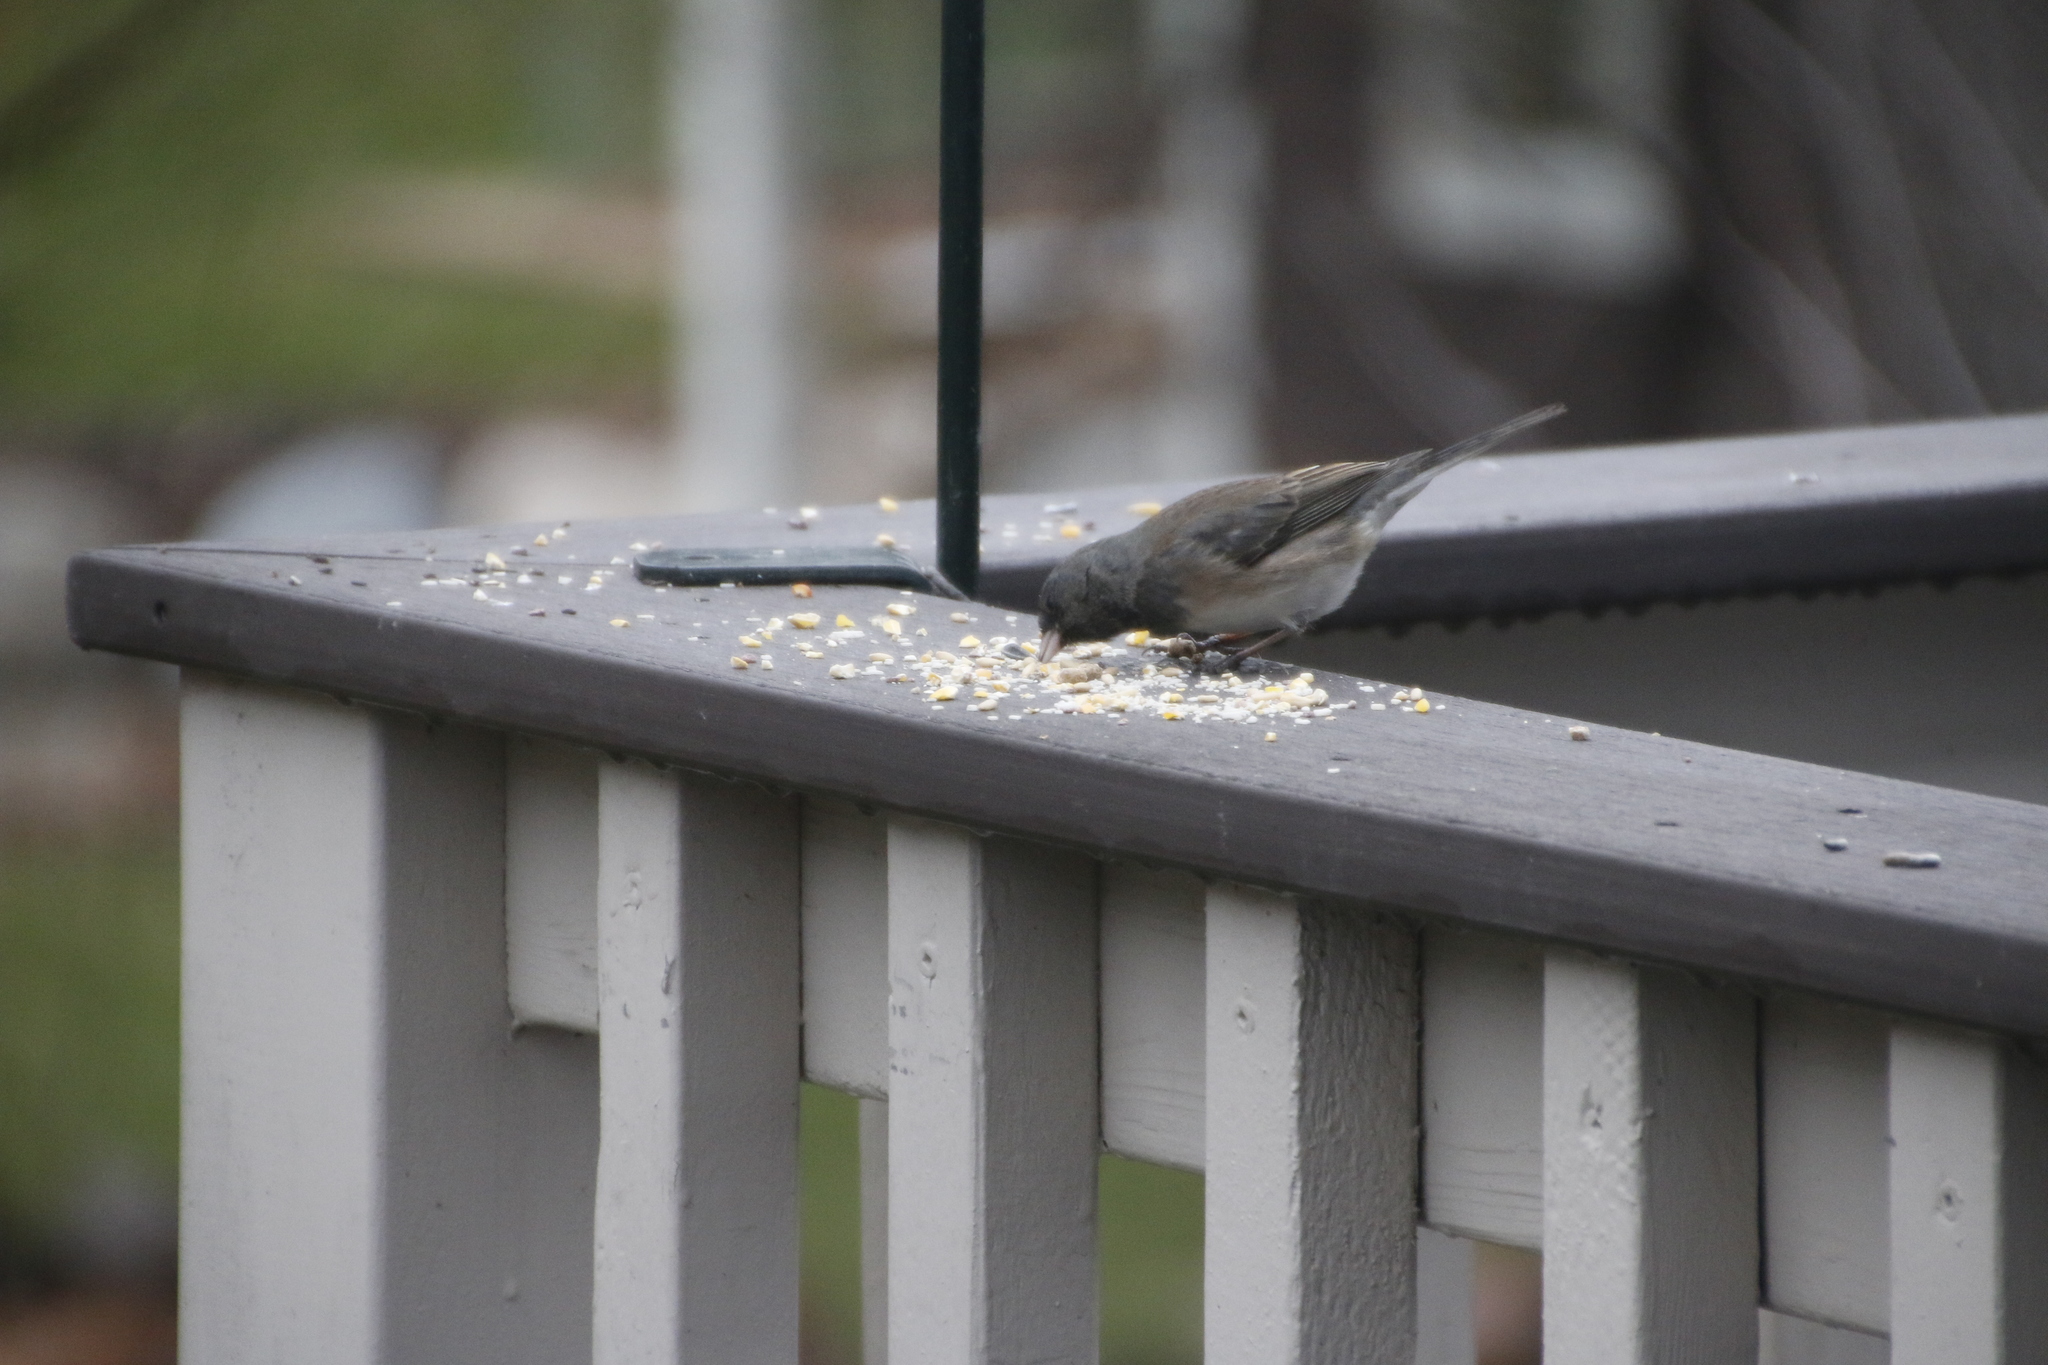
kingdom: Animalia
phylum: Chordata
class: Aves
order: Passeriformes
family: Passerellidae
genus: Junco
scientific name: Junco hyemalis
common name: Dark-eyed junco
